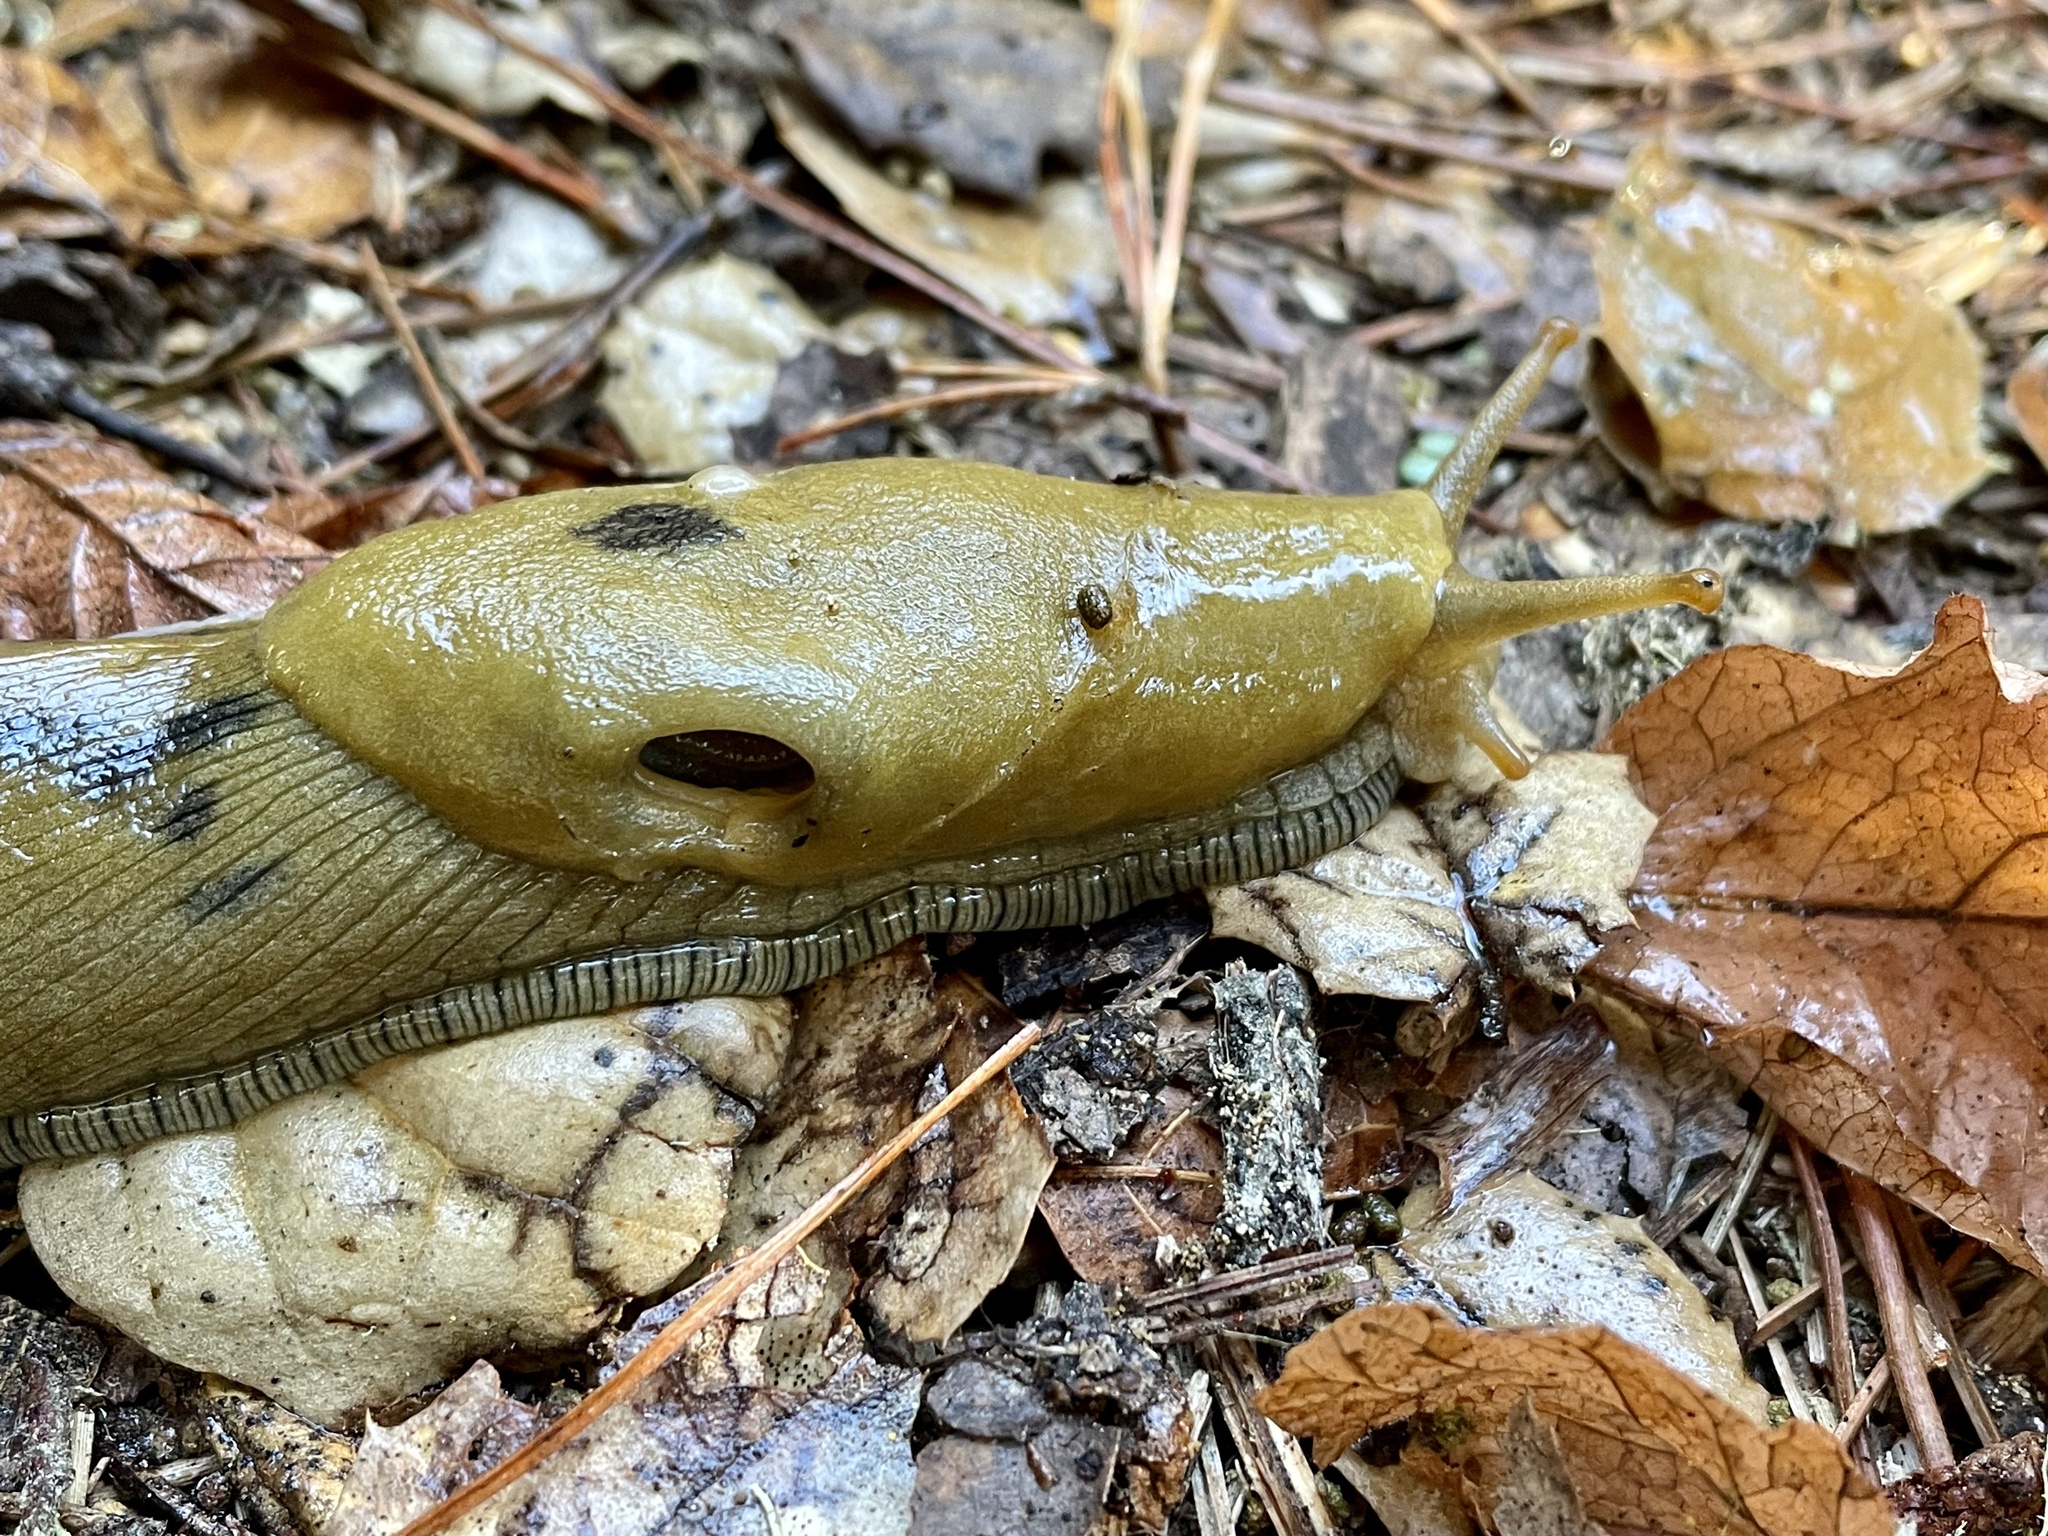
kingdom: Animalia
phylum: Mollusca
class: Gastropoda
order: Stylommatophora
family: Ariolimacidae
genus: Ariolimax
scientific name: Ariolimax buttoni
